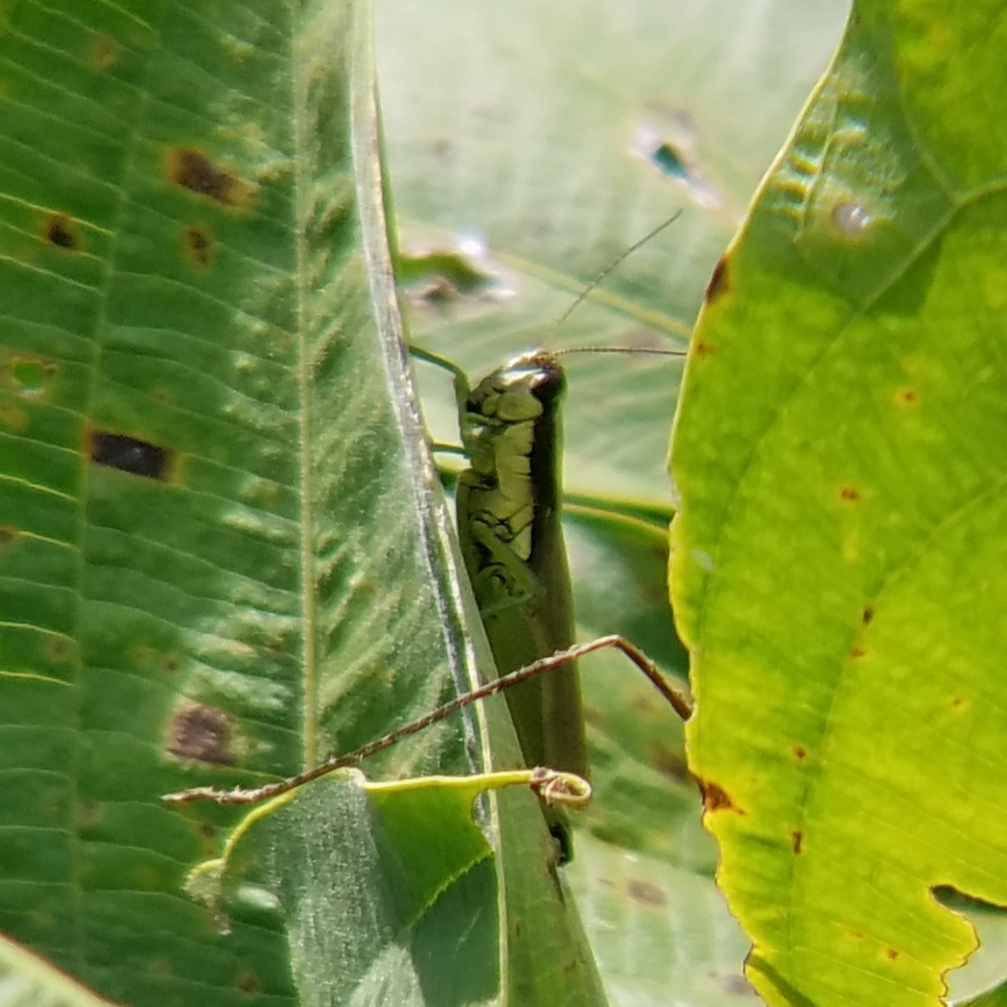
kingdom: Animalia
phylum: Arthropoda
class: Insecta
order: Orthoptera
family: Acrididae
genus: Paroxya
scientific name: Paroxya clavuligera
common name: Olive-green swamp grasshopper
